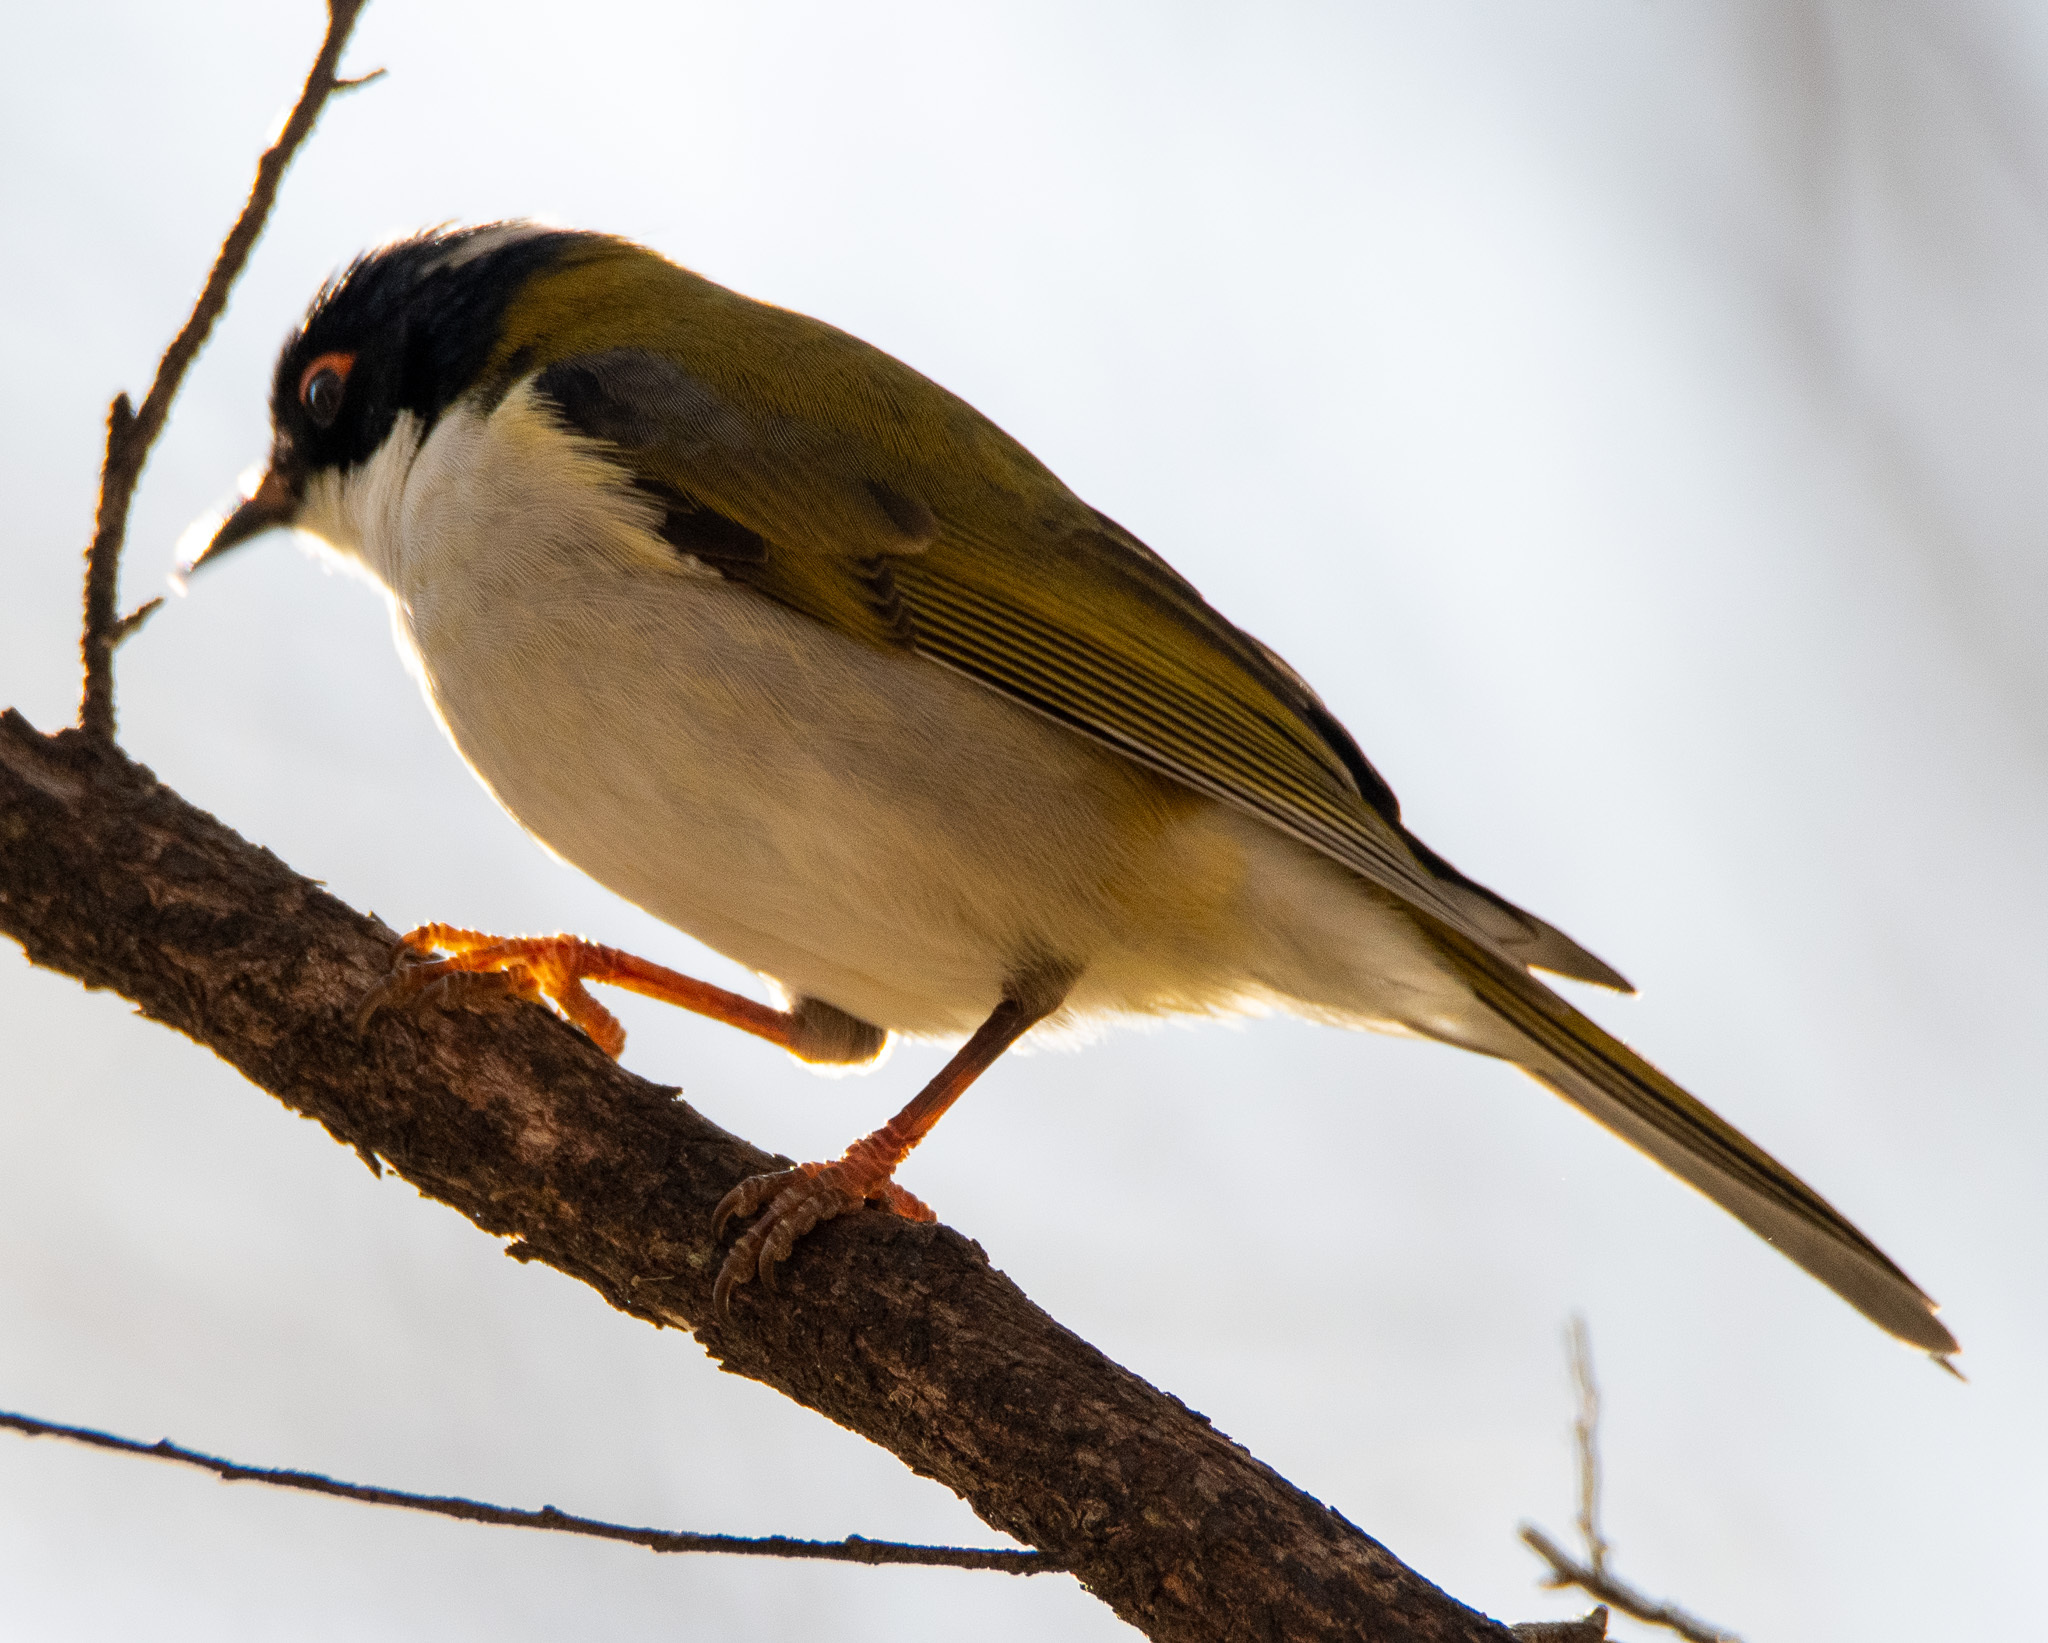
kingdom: Animalia
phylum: Chordata
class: Aves
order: Passeriformes
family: Meliphagidae
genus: Melithreptus
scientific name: Melithreptus lunatus
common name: White-naped honeyeater
